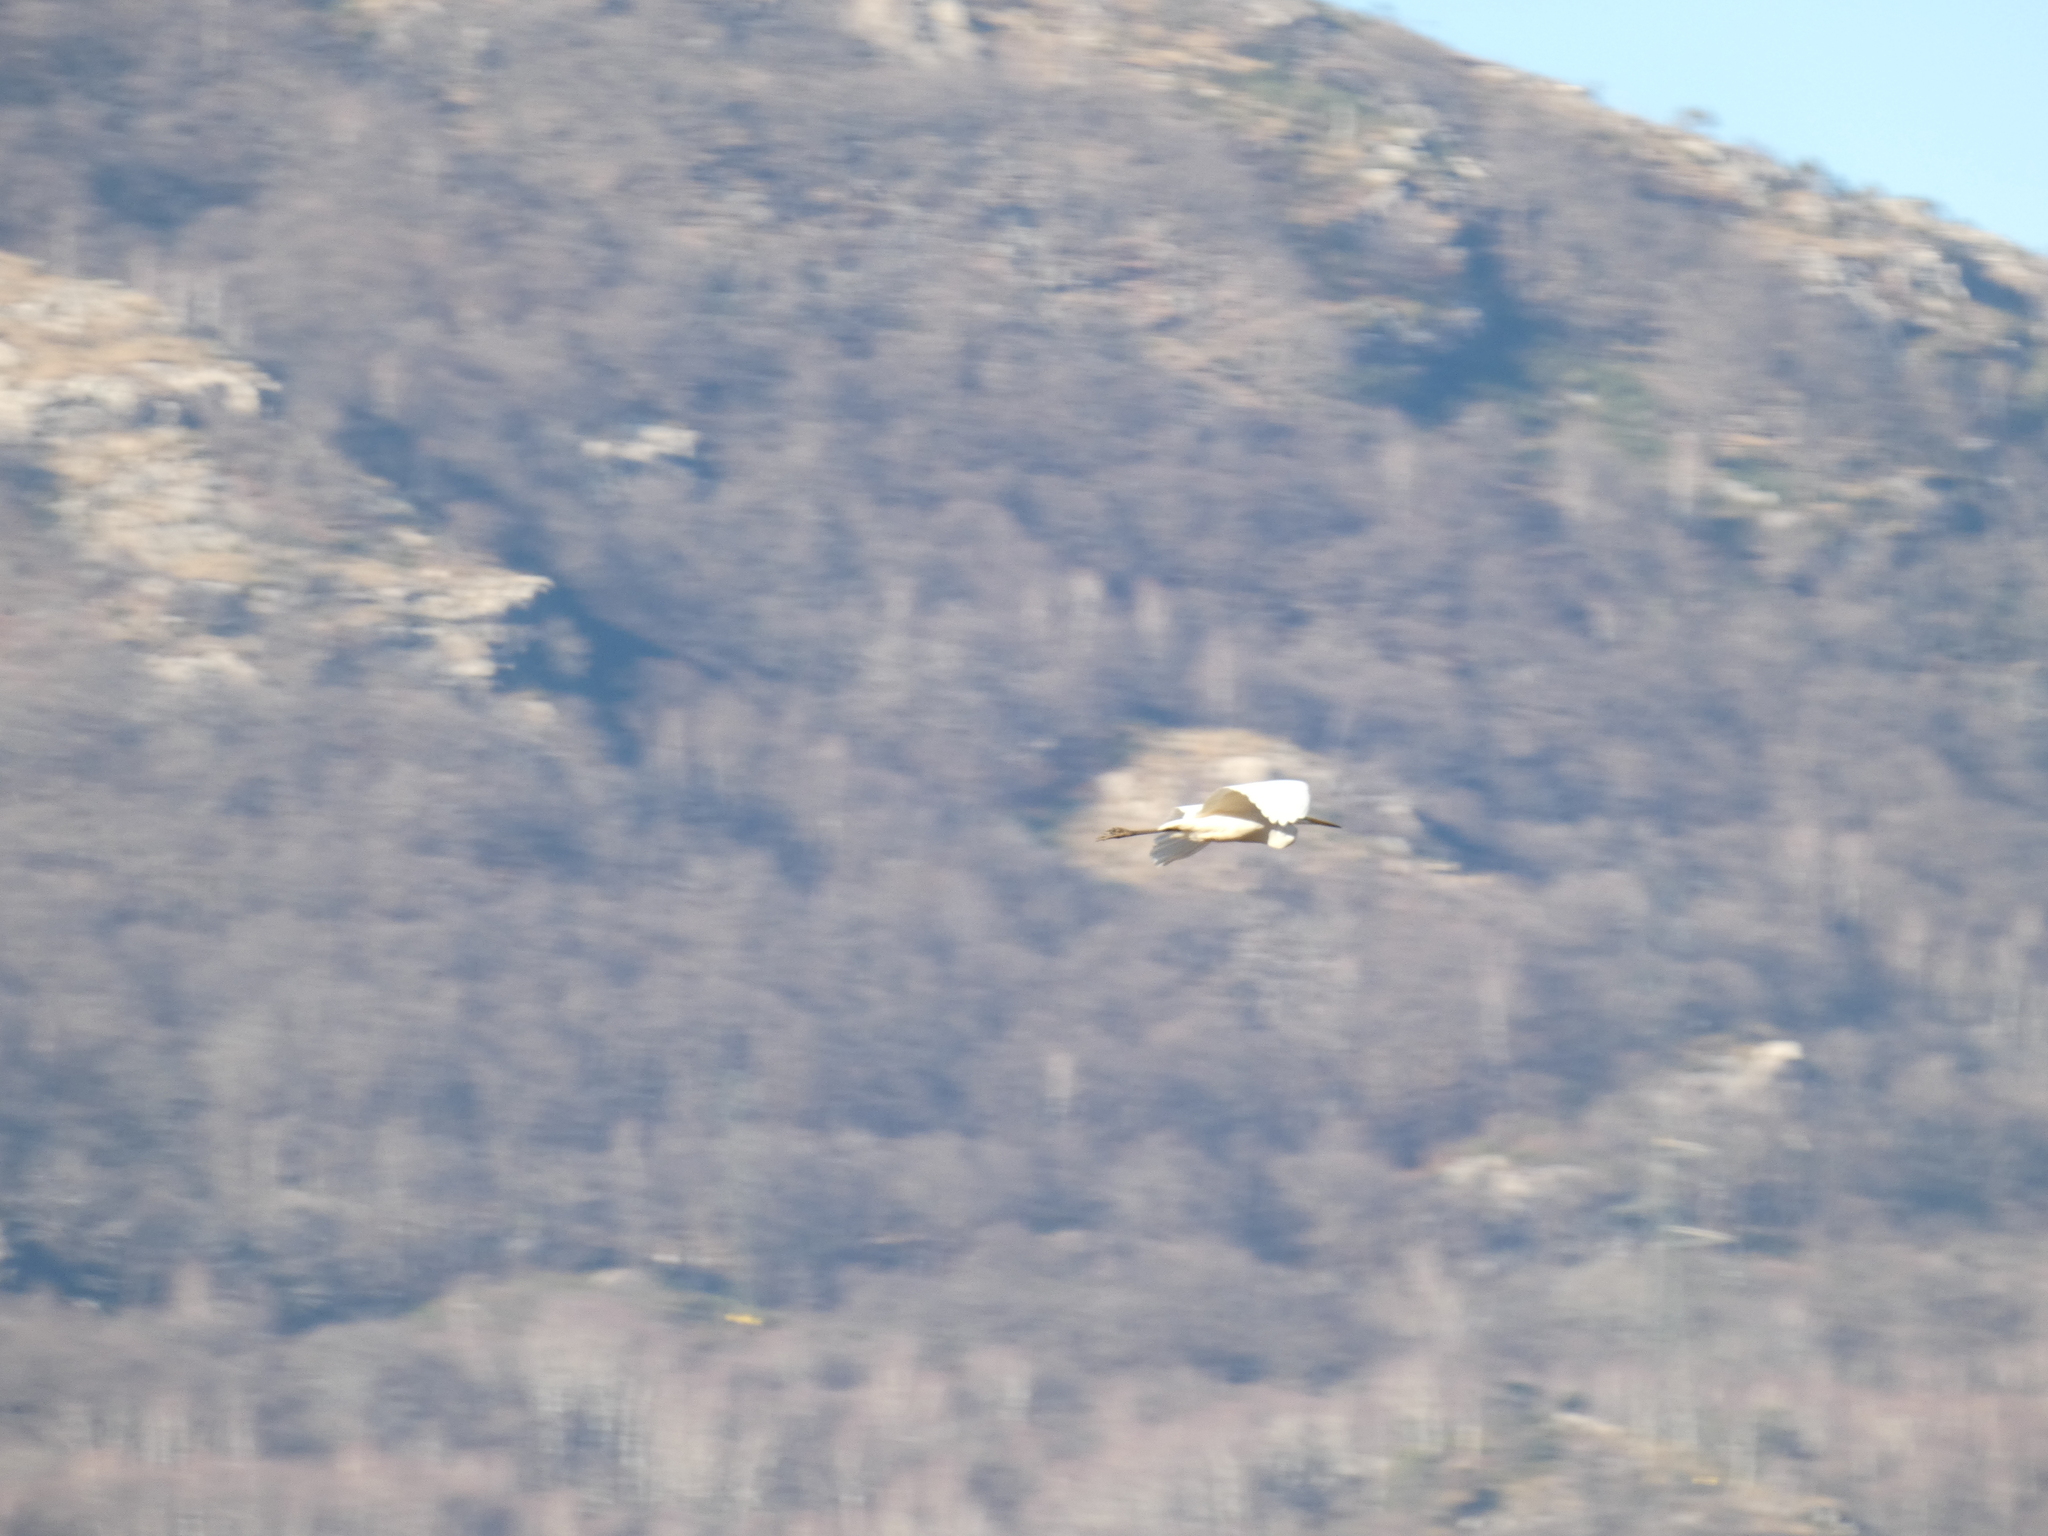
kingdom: Animalia
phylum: Chordata
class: Aves
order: Pelecaniformes
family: Ardeidae
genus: Ardea
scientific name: Ardea alba
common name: Great egret
